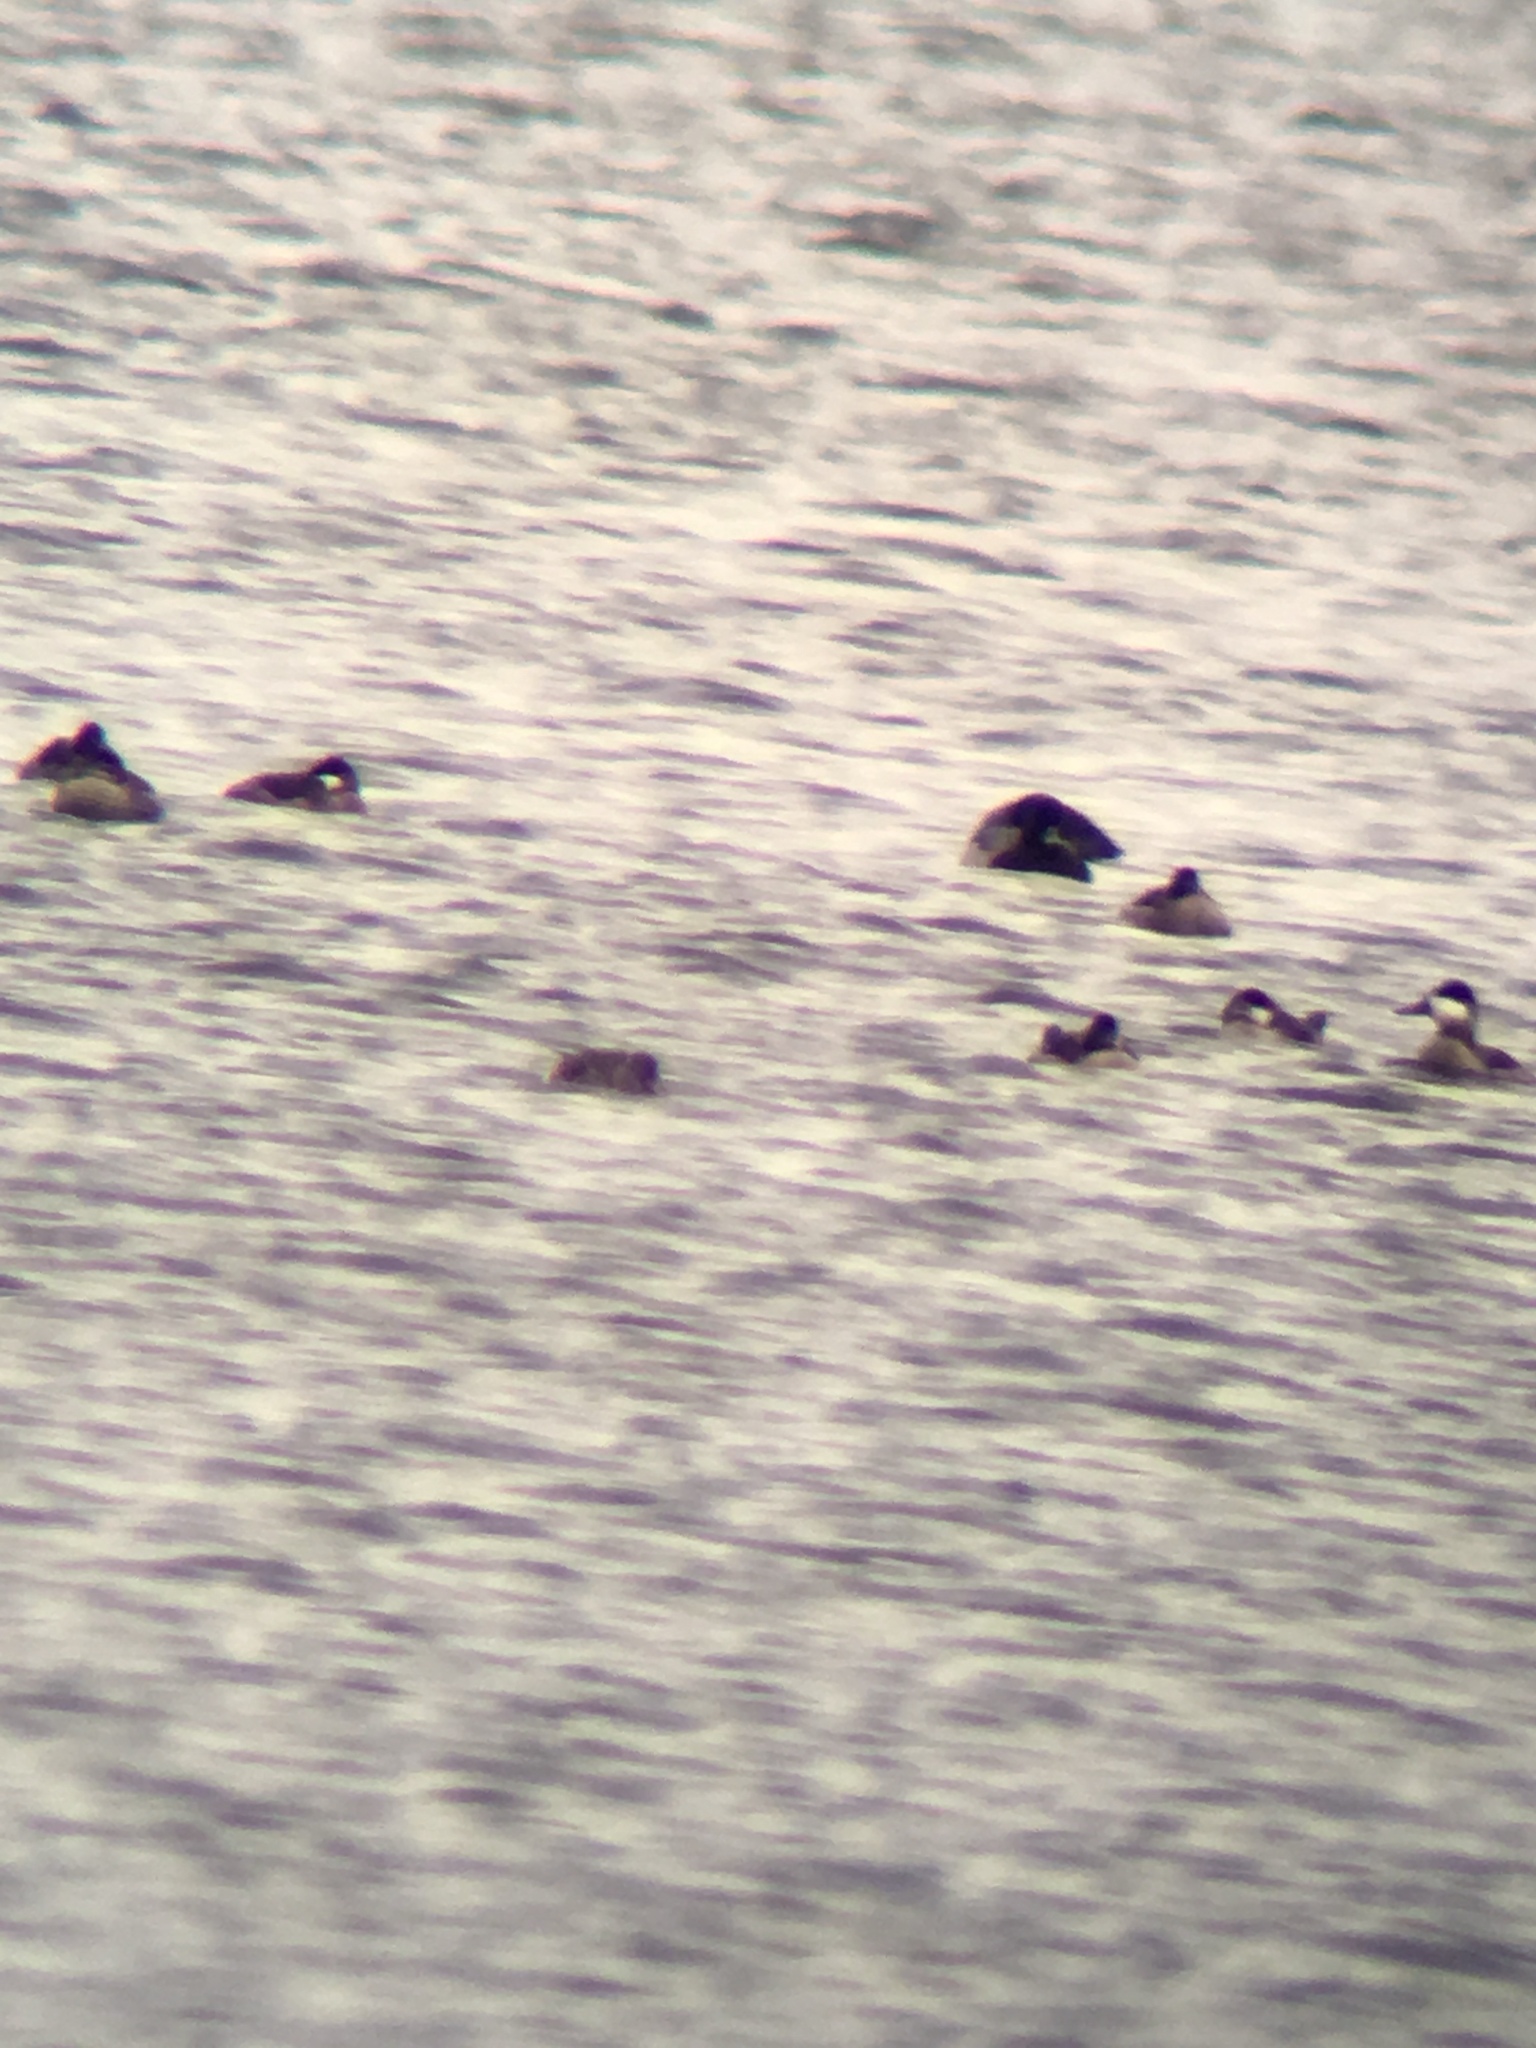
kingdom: Animalia
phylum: Chordata
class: Aves
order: Anseriformes
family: Anatidae
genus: Oxyura
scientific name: Oxyura jamaicensis
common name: Ruddy duck
